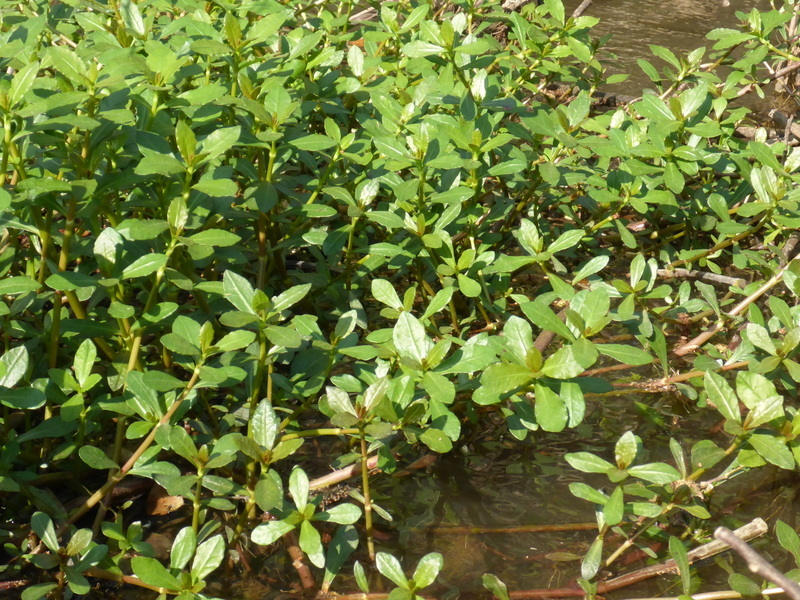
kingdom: Plantae
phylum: Tracheophyta
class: Magnoliopsida
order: Caryophyllales
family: Amaranthaceae
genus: Alternanthera
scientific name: Alternanthera philoxeroides
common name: Alligatorweed
